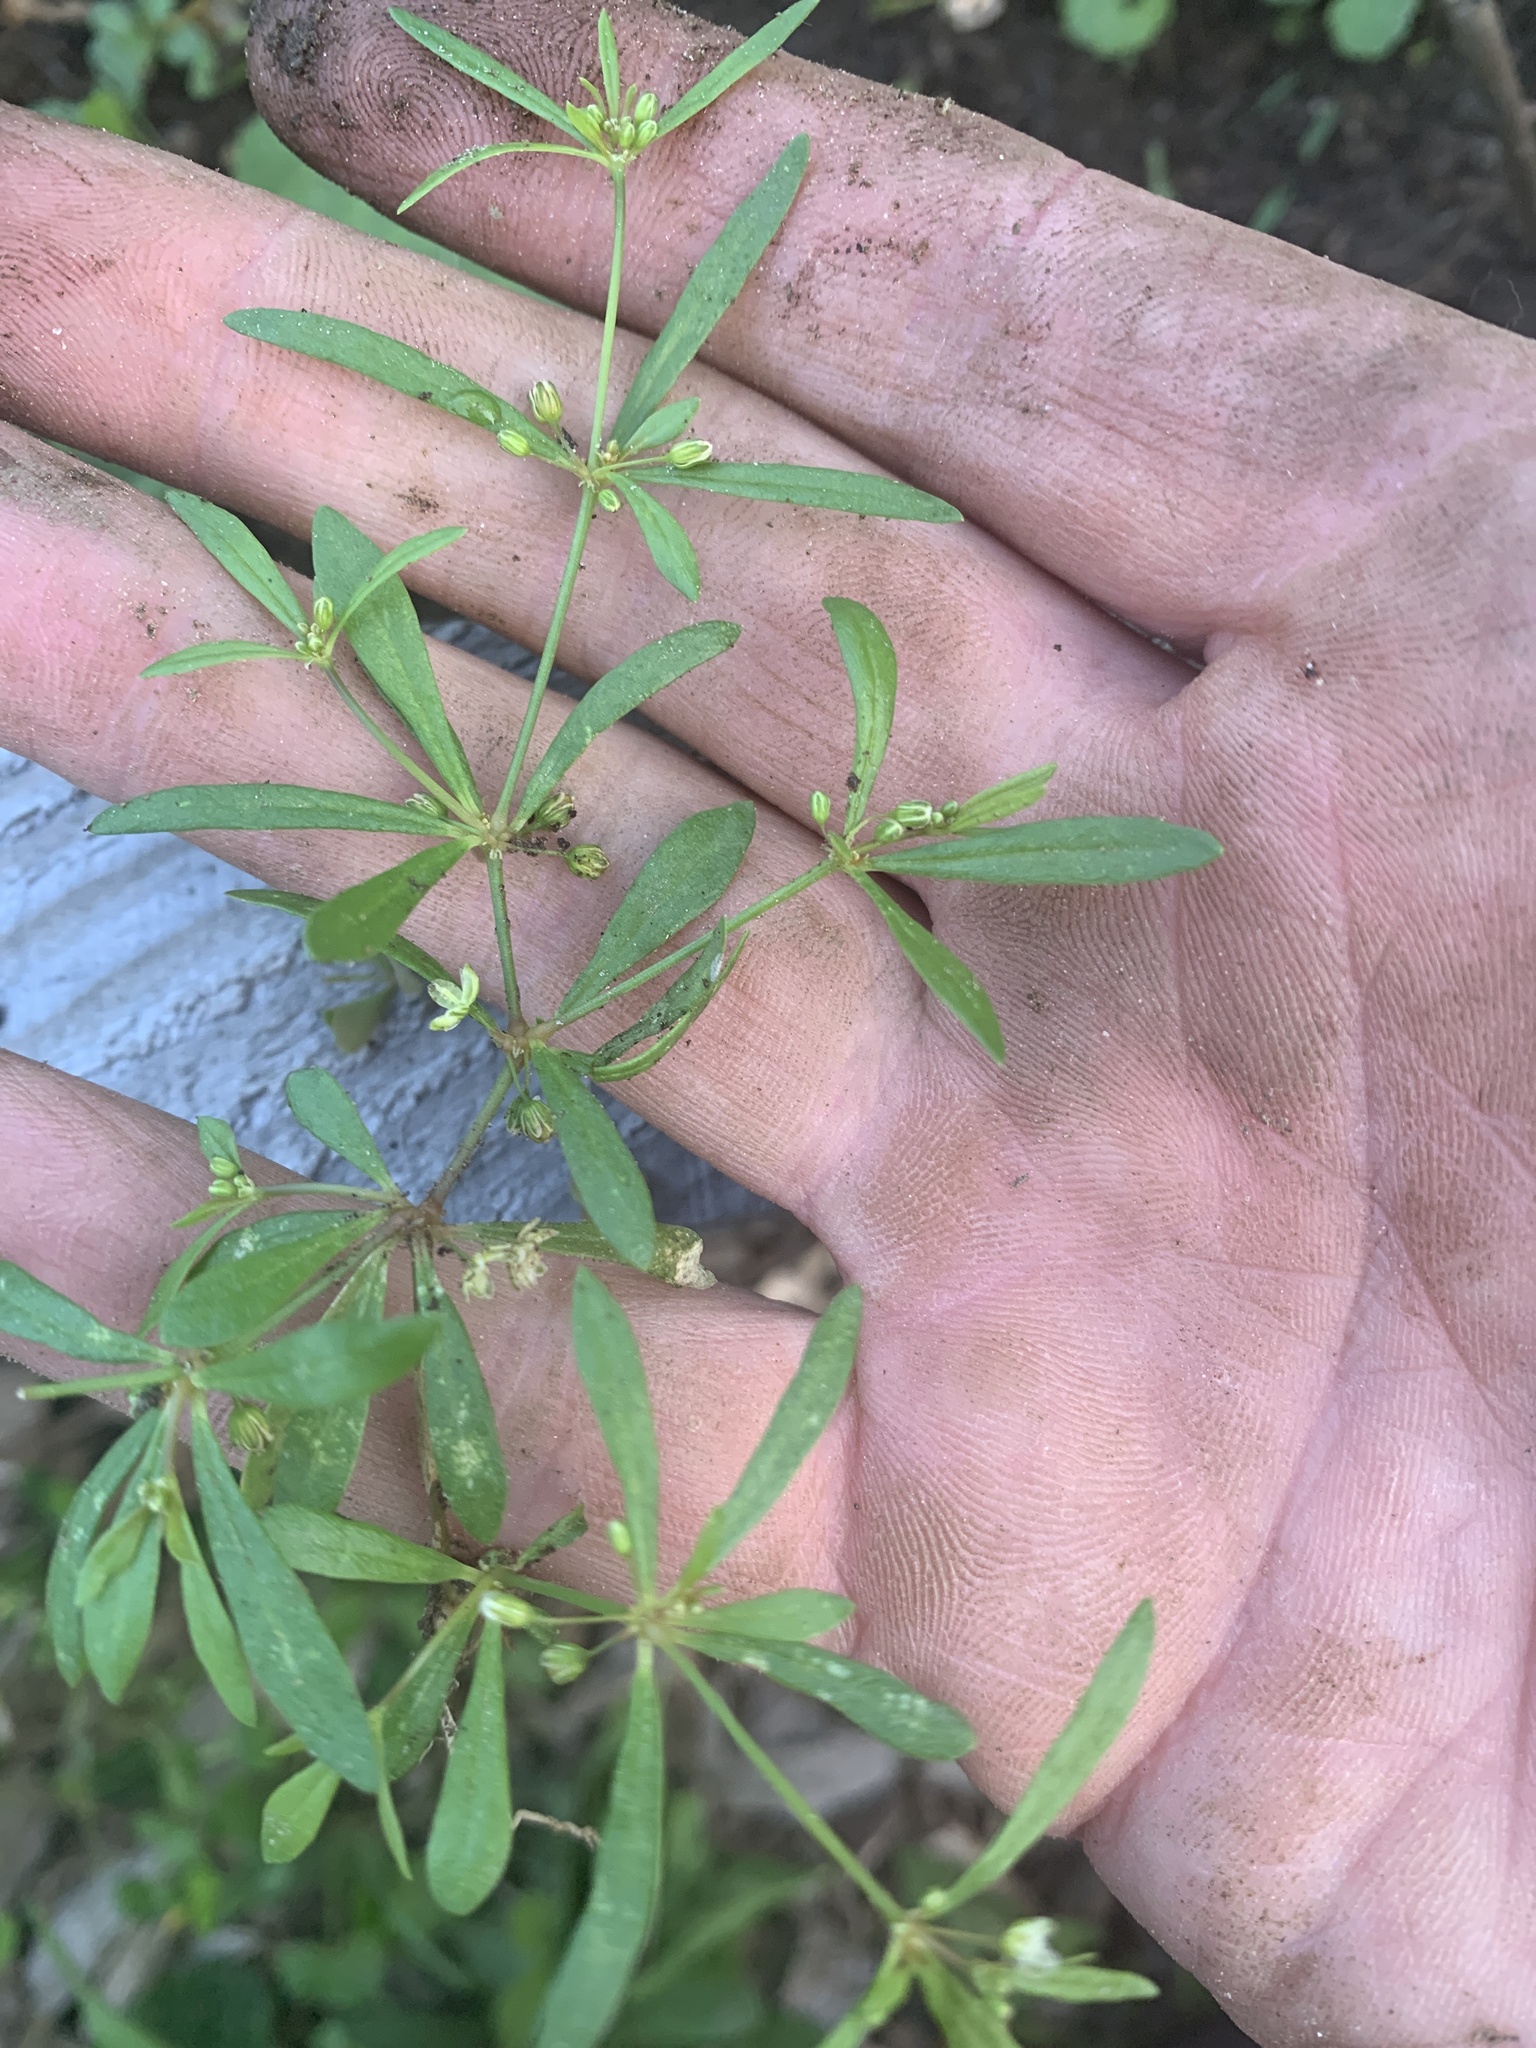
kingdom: Plantae
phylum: Tracheophyta
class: Magnoliopsida
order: Caryophyllales
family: Molluginaceae
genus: Mollugo
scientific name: Mollugo verticillata
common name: Green carpetweed
